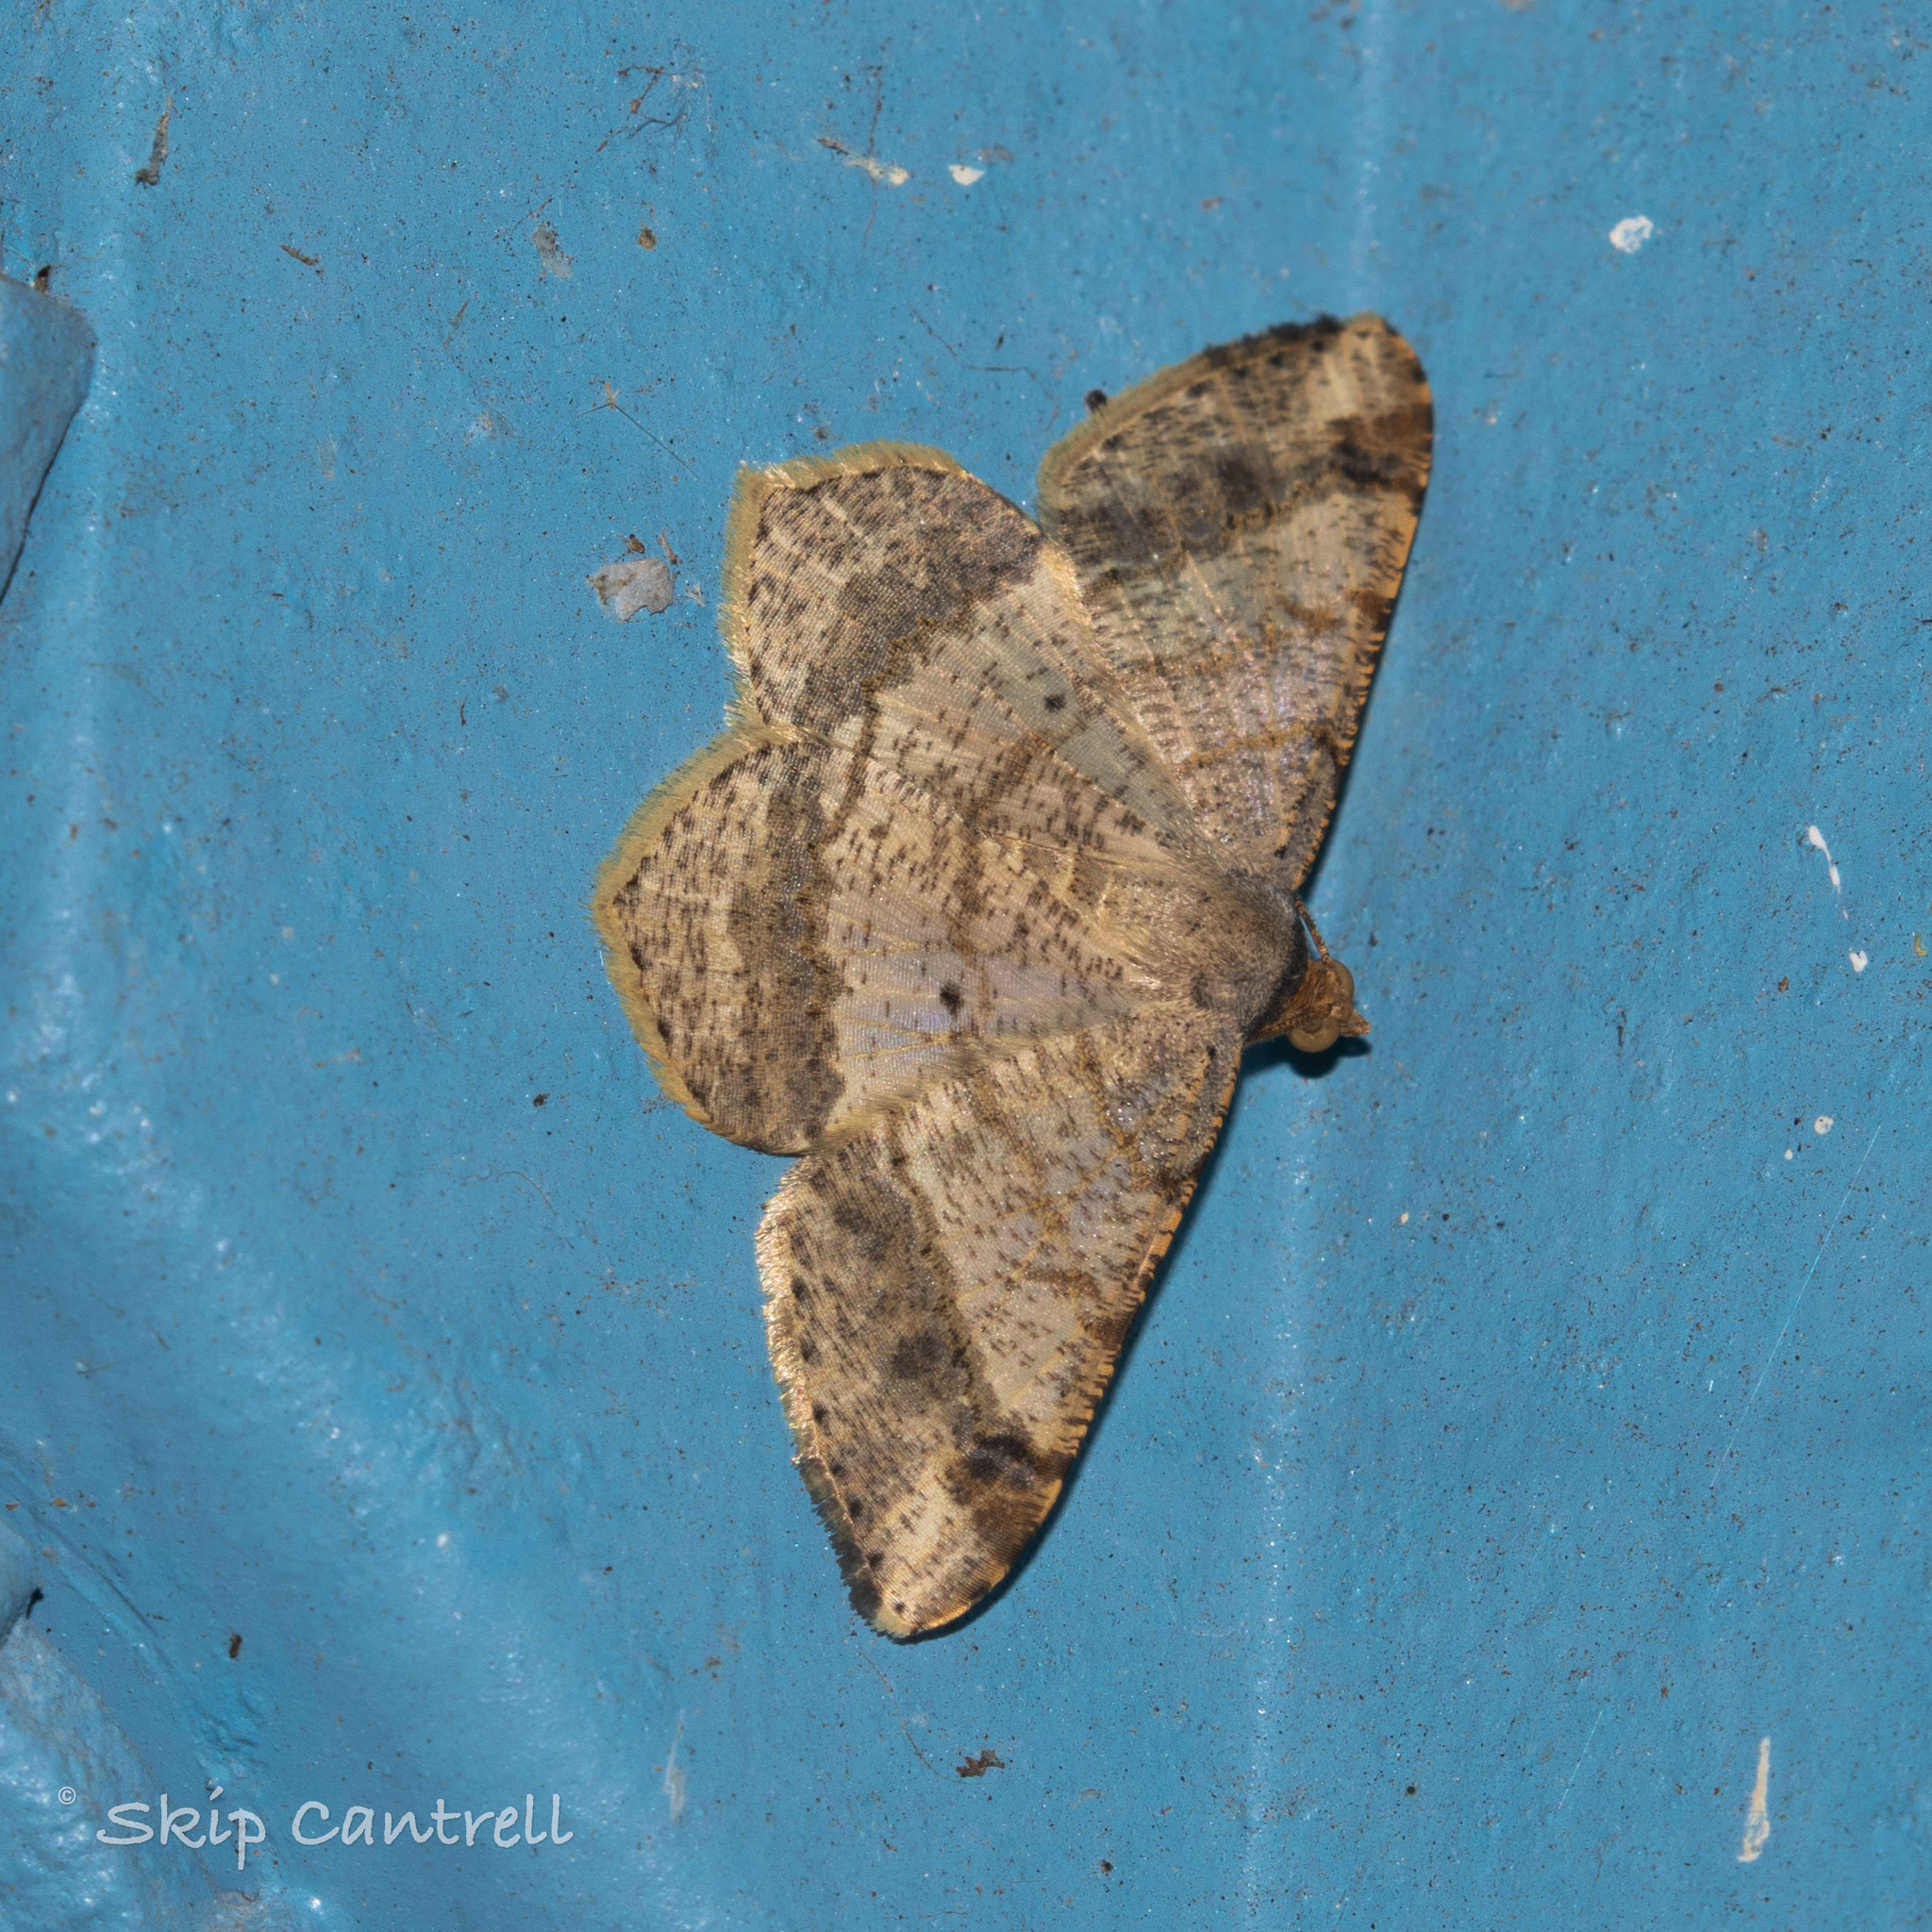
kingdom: Animalia
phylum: Arthropoda
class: Insecta
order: Lepidoptera
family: Geometridae
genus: Macaria
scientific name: Macaria abydata
